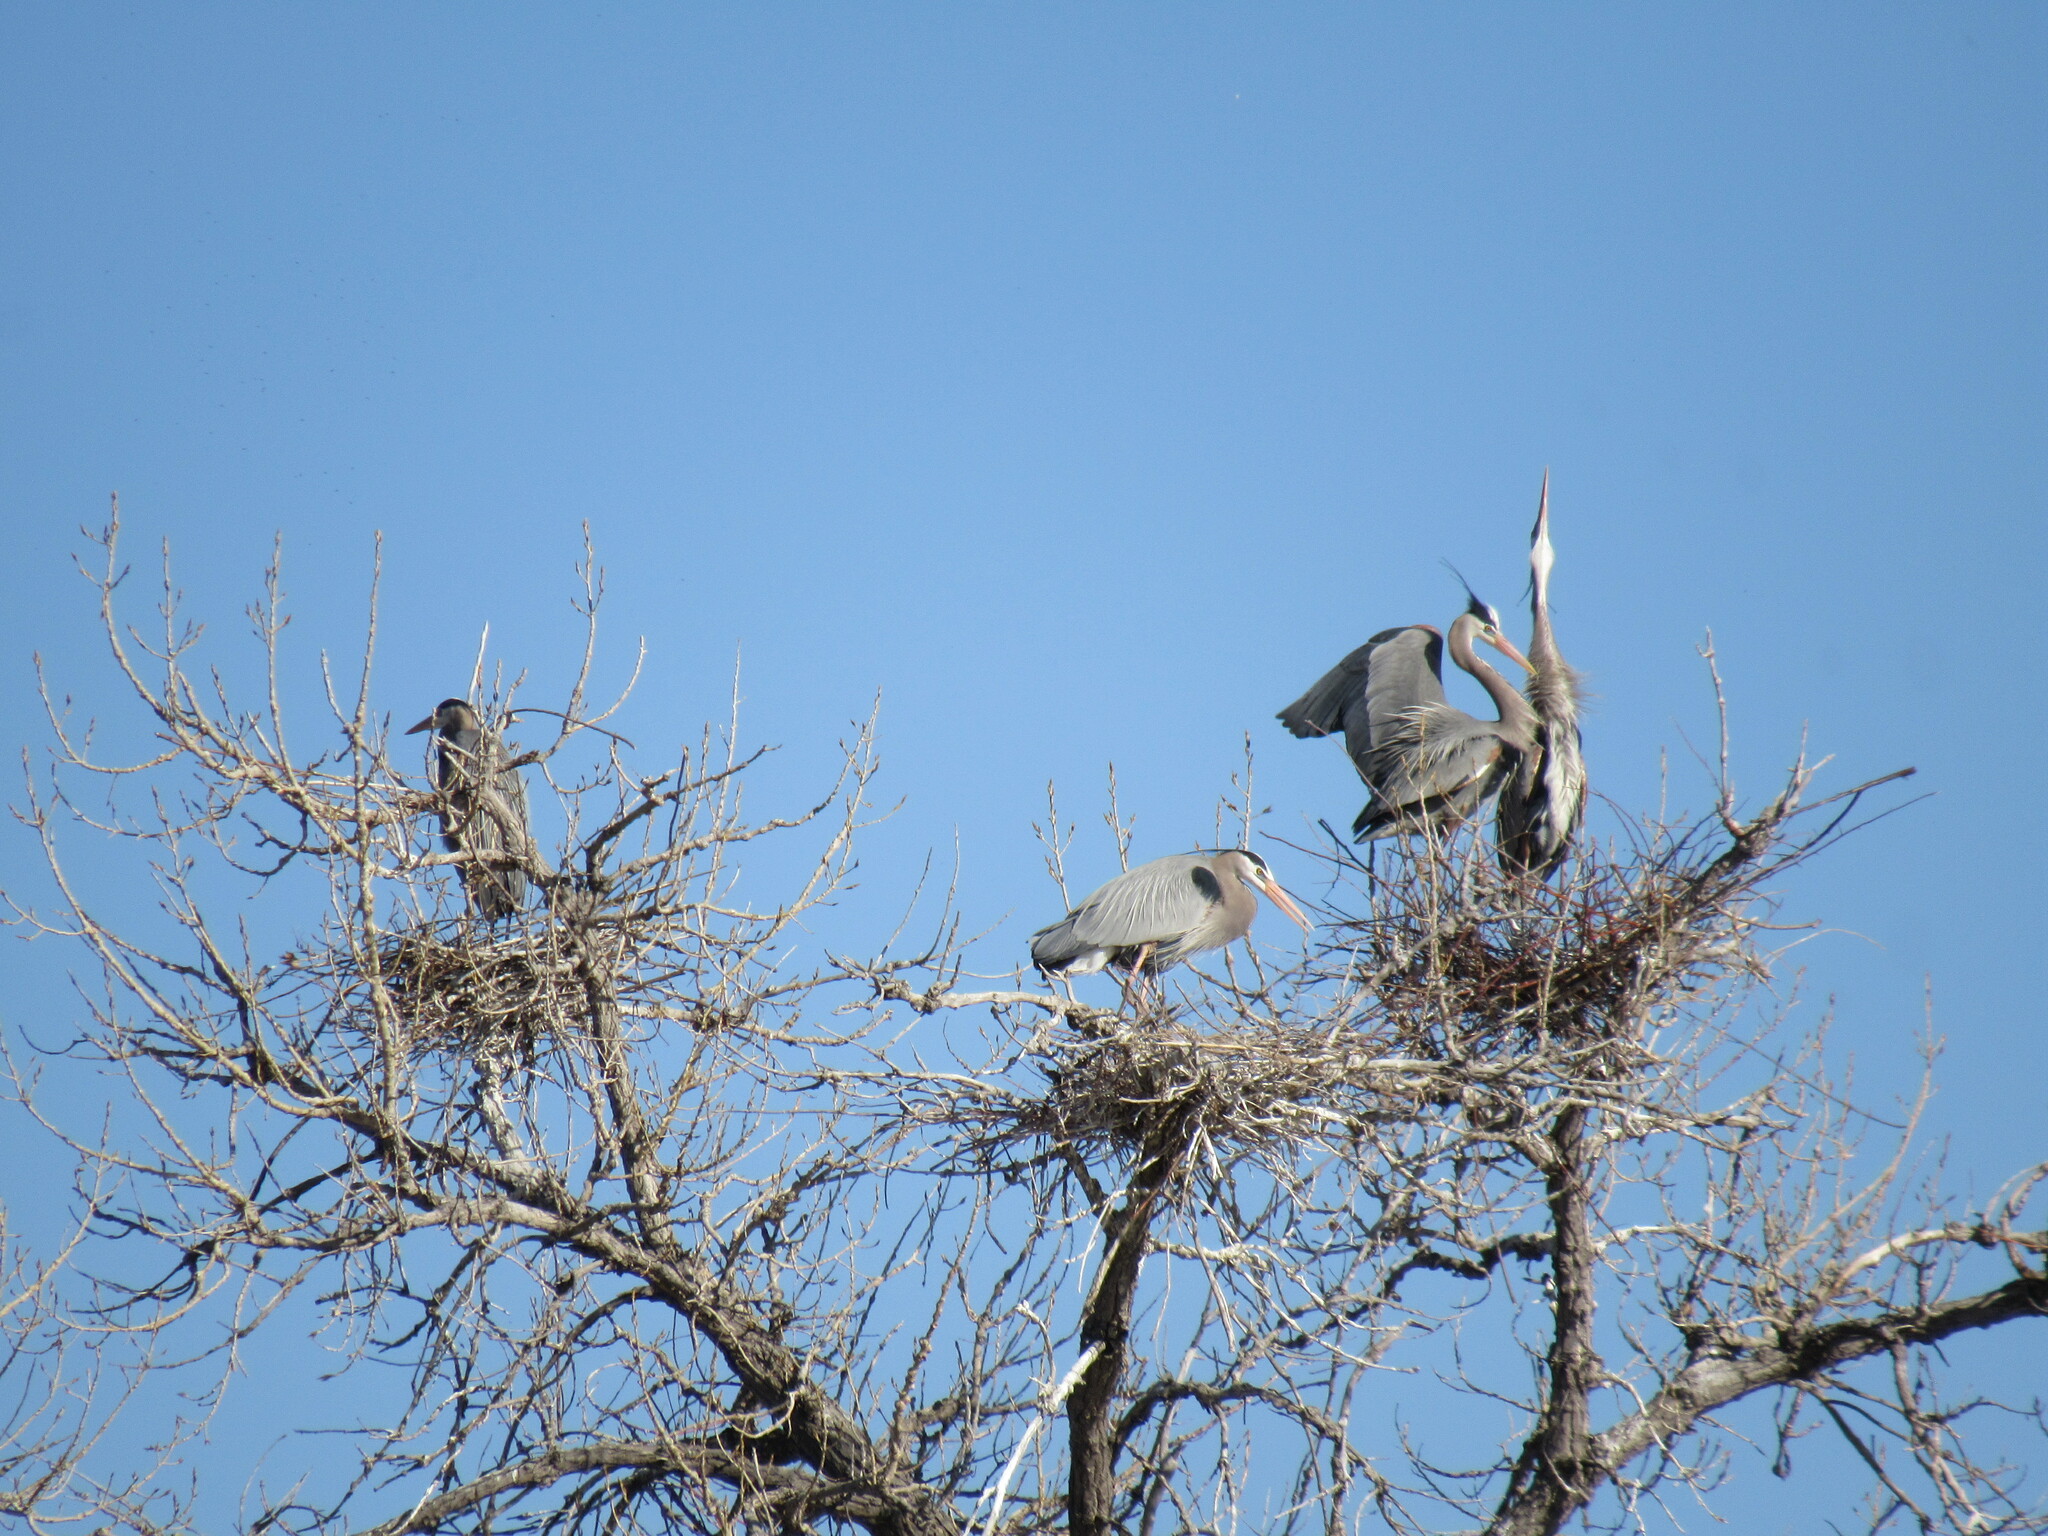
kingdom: Animalia
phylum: Chordata
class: Aves
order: Pelecaniformes
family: Ardeidae
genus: Ardea
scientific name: Ardea herodias
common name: Great blue heron
